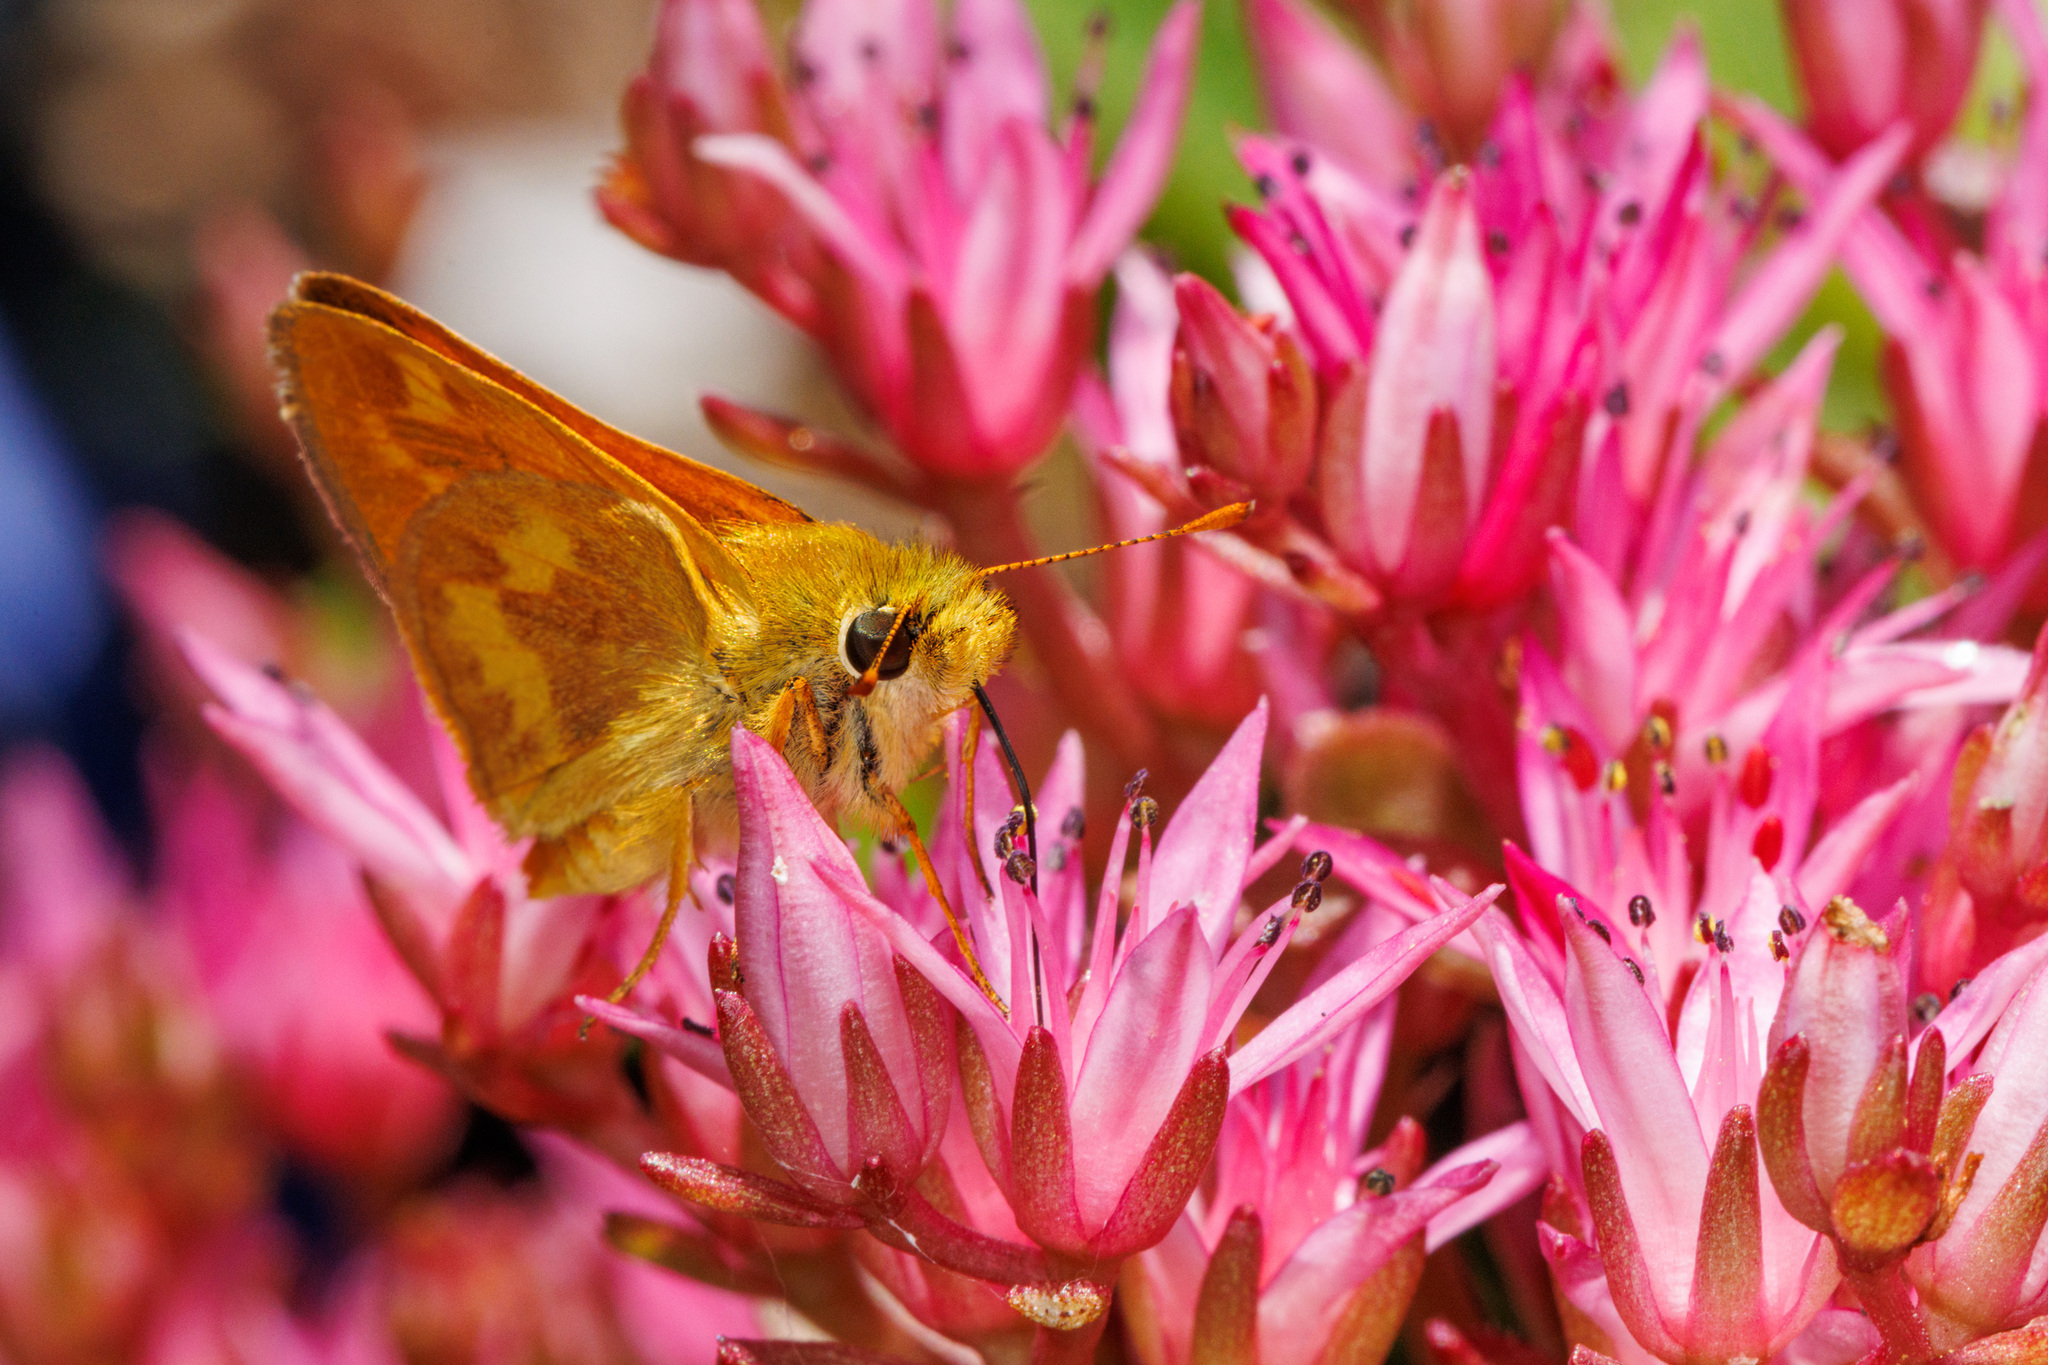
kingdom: Animalia
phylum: Arthropoda
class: Insecta
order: Lepidoptera
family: Hesperiidae
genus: Ochlodes
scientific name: Ochlodes sylvanoides
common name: Woodland skipper
